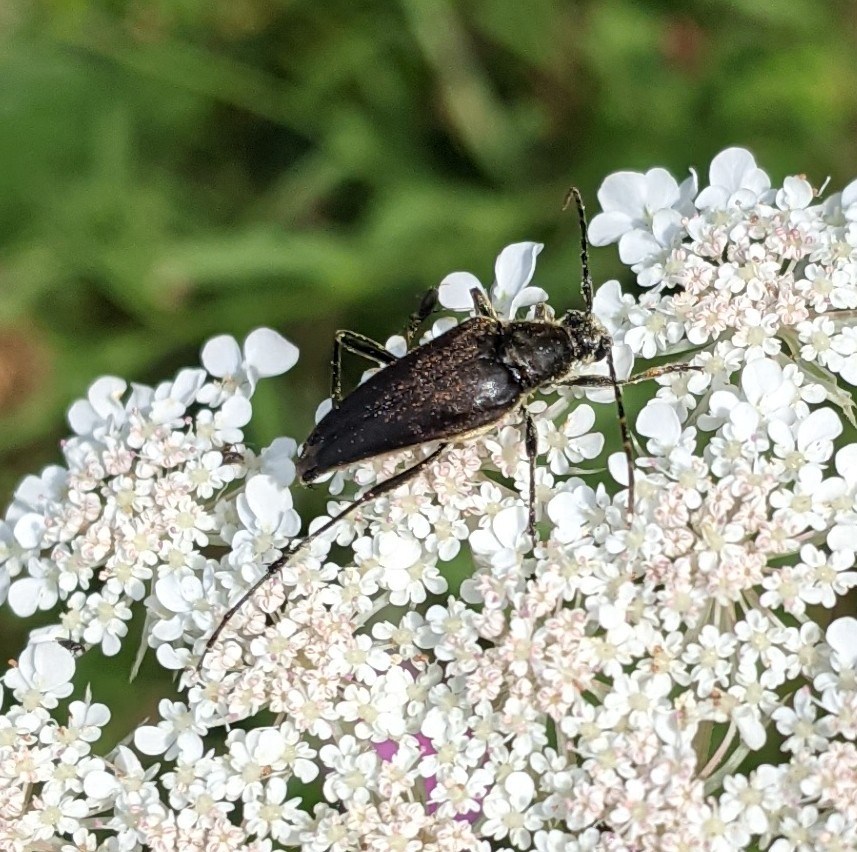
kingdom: Animalia
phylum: Arthropoda
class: Insecta
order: Coleoptera
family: Cerambycidae
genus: Etorofus
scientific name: Etorofus
